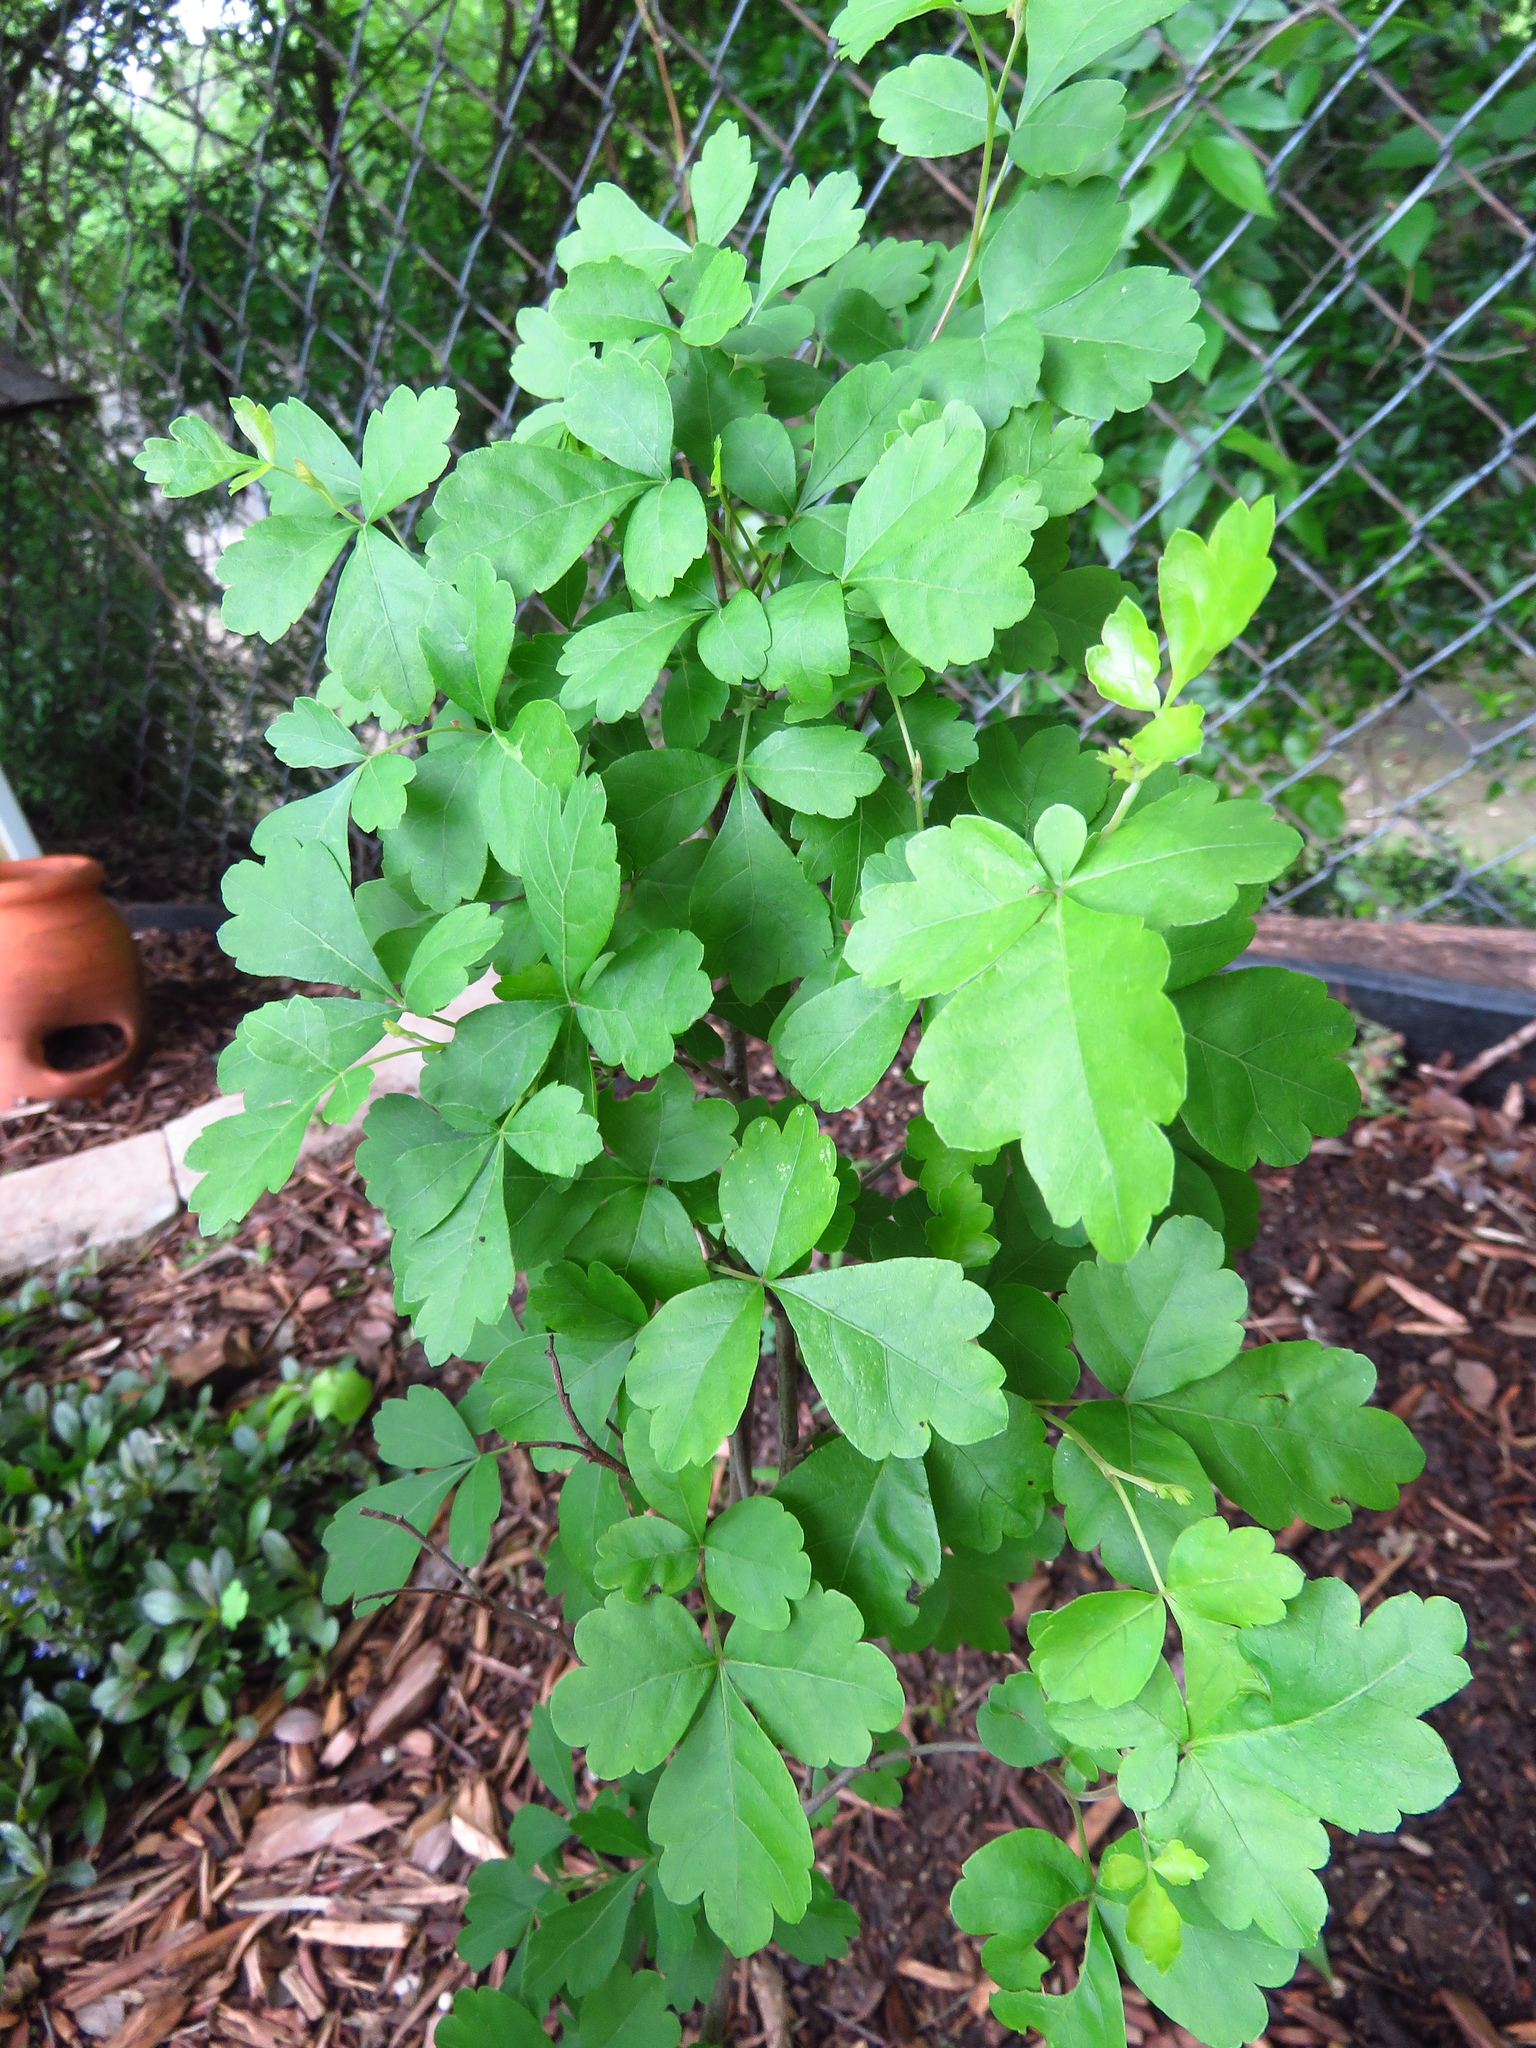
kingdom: Plantae
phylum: Tracheophyta
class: Magnoliopsida
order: Sapindales
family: Anacardiaceae
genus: Rhus
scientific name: Rhus aromatica
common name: Aromatic sumac
